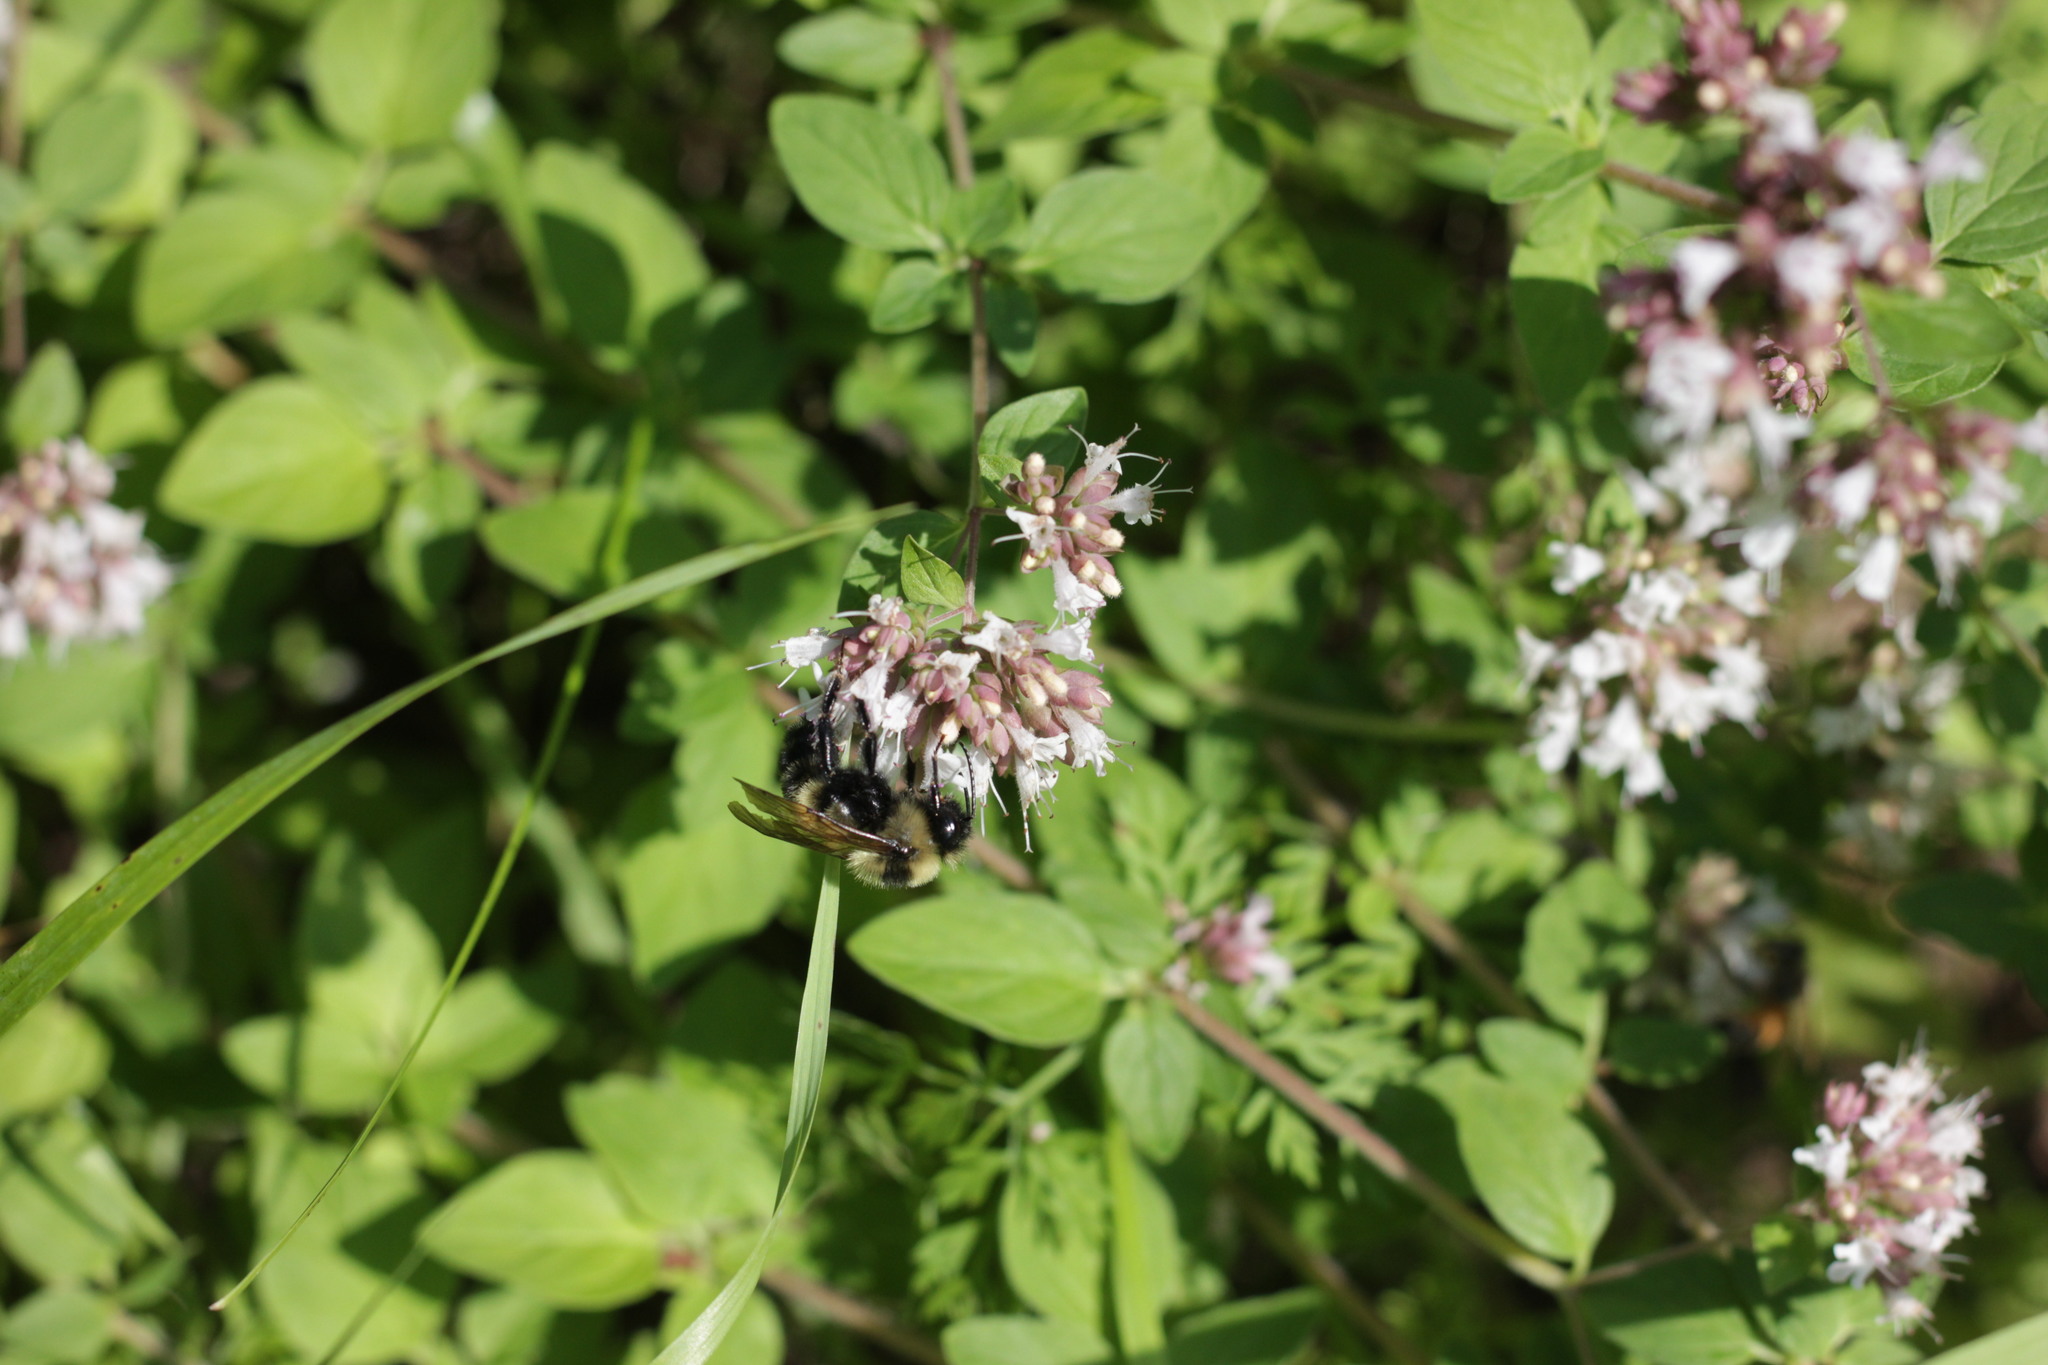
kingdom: Animalia
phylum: Arthropoda
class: Insecta
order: Hymenoptera
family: Apidae
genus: Bombus
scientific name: Bombus citrinus
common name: Lemon cuckoo bumble bee
